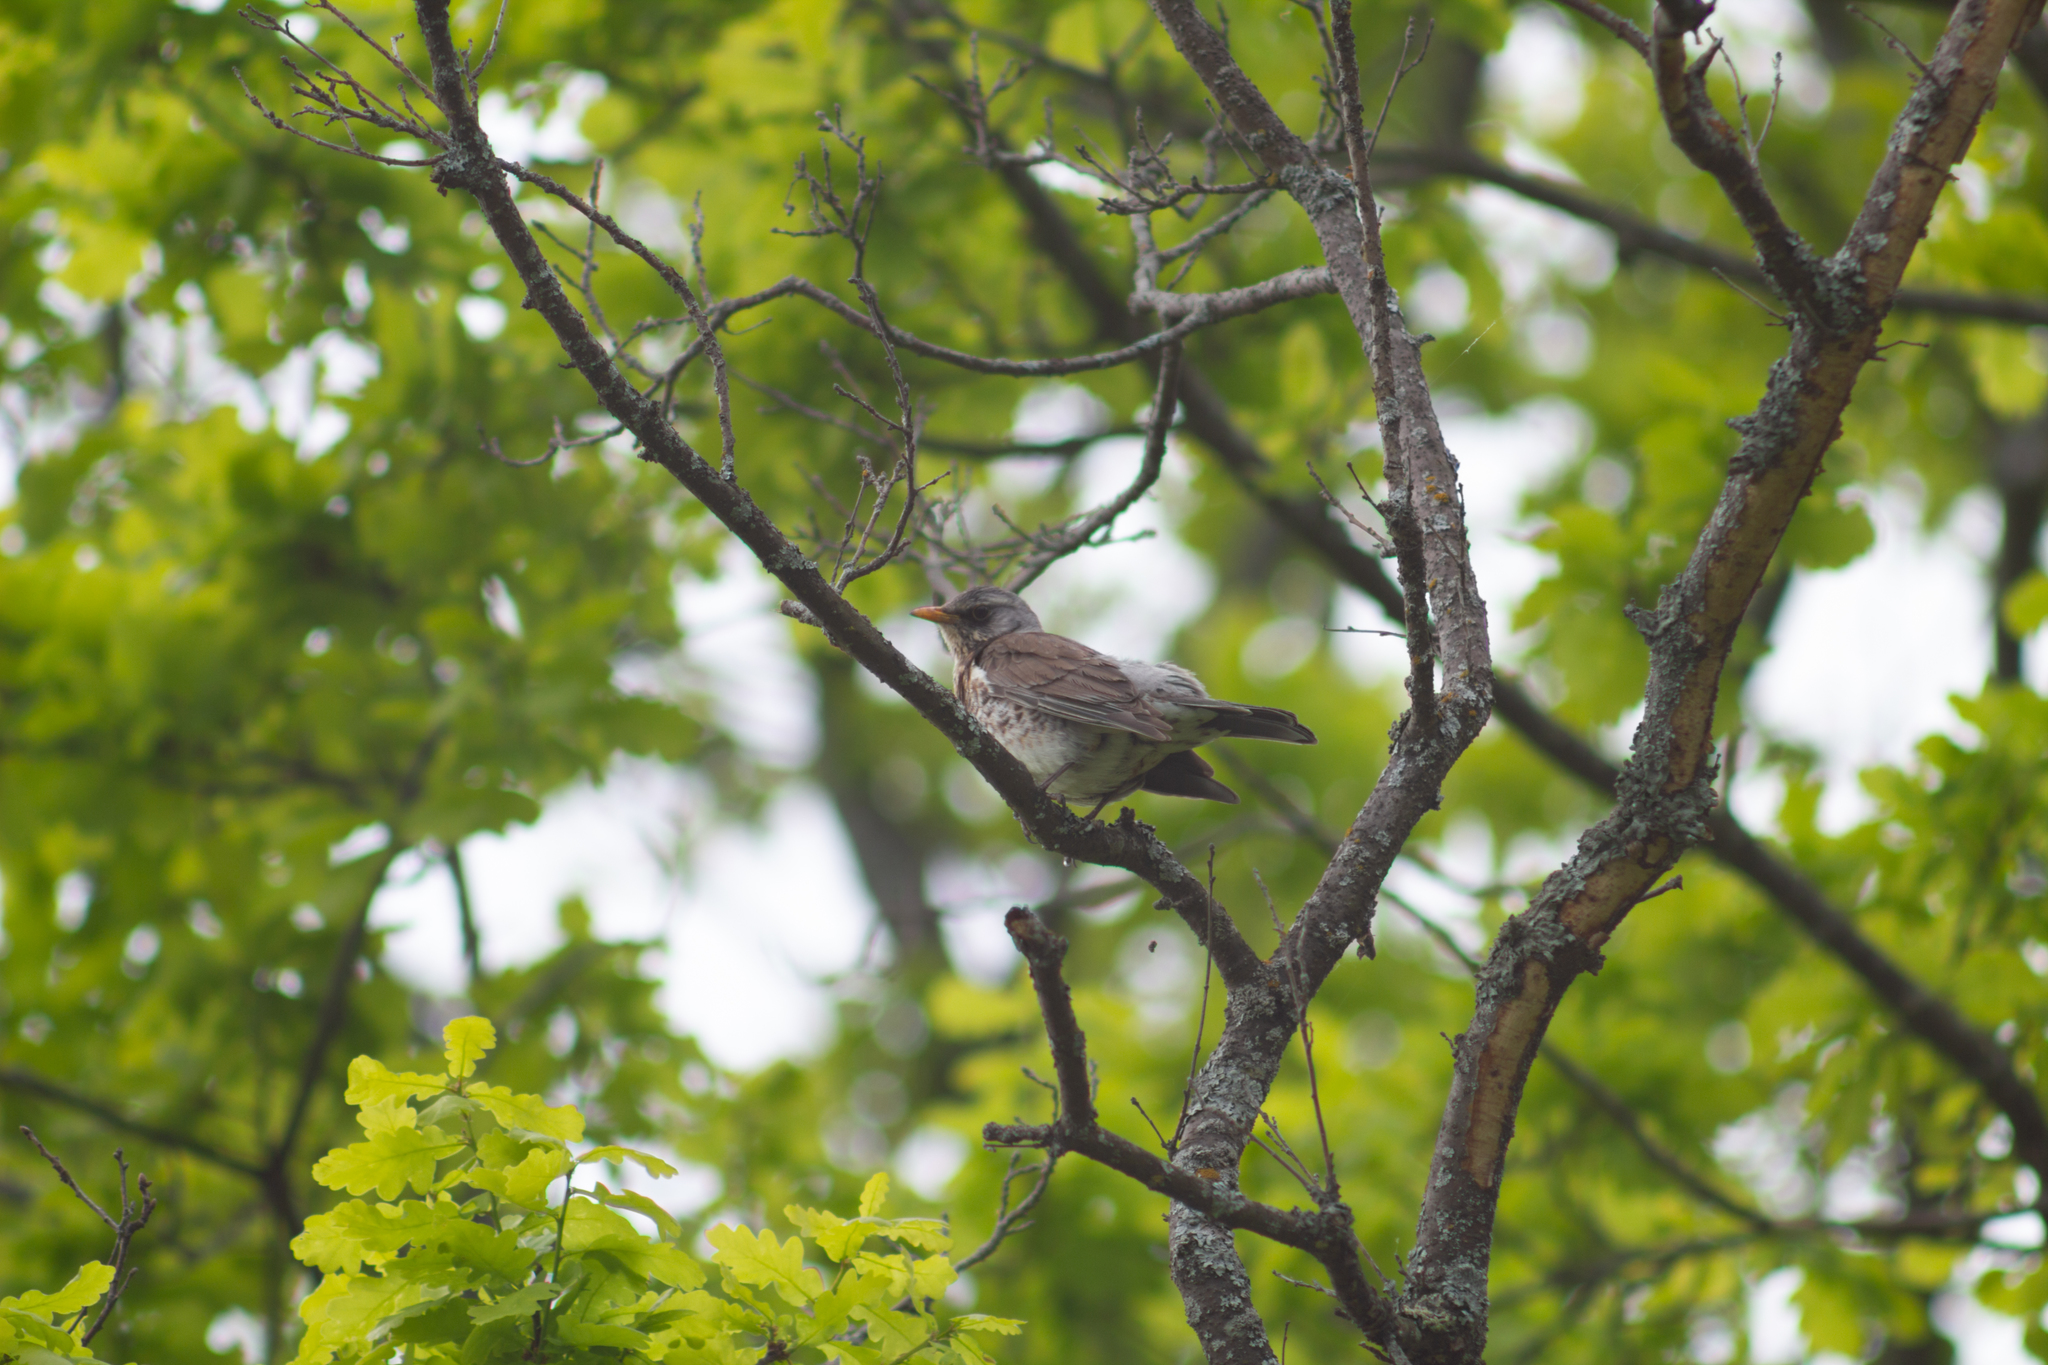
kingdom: Animalia
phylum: Chordata
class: Aves
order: Passeriformes
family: Turdidae
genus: Turdus
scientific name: Turdus pilaris
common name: Fieldfare
